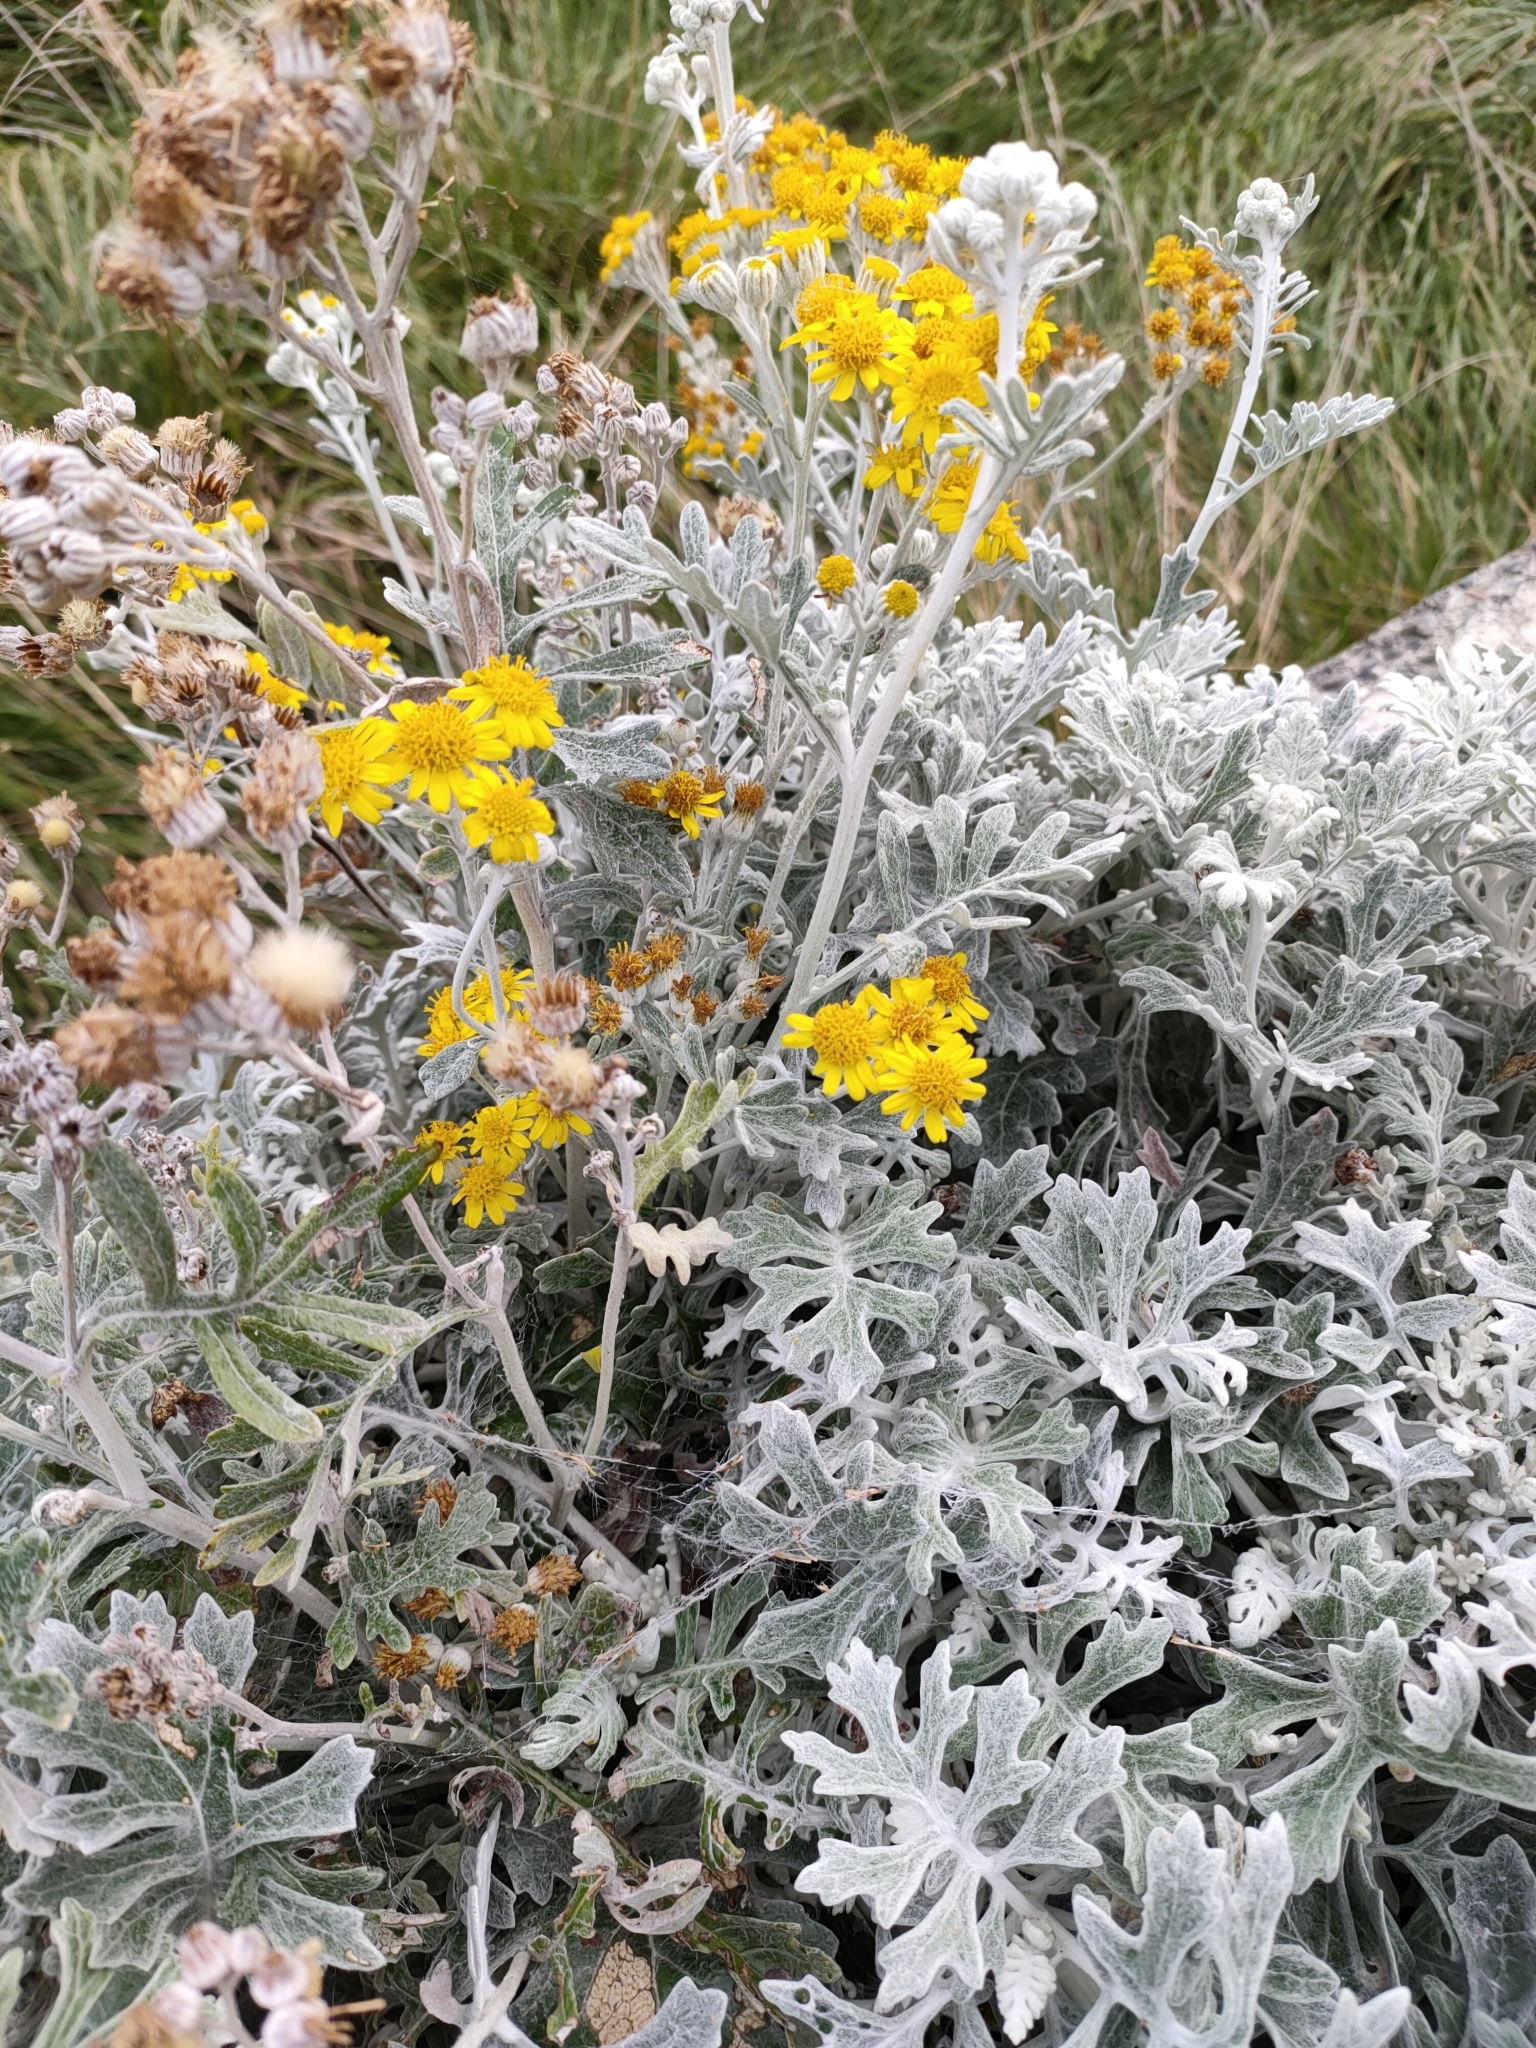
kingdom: Plantae
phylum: Tracheophyta
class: Magnoliopsida
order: Asterales
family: Asteraceae
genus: Jacobaea
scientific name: Jacobaea maritima
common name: Silver ragwort
